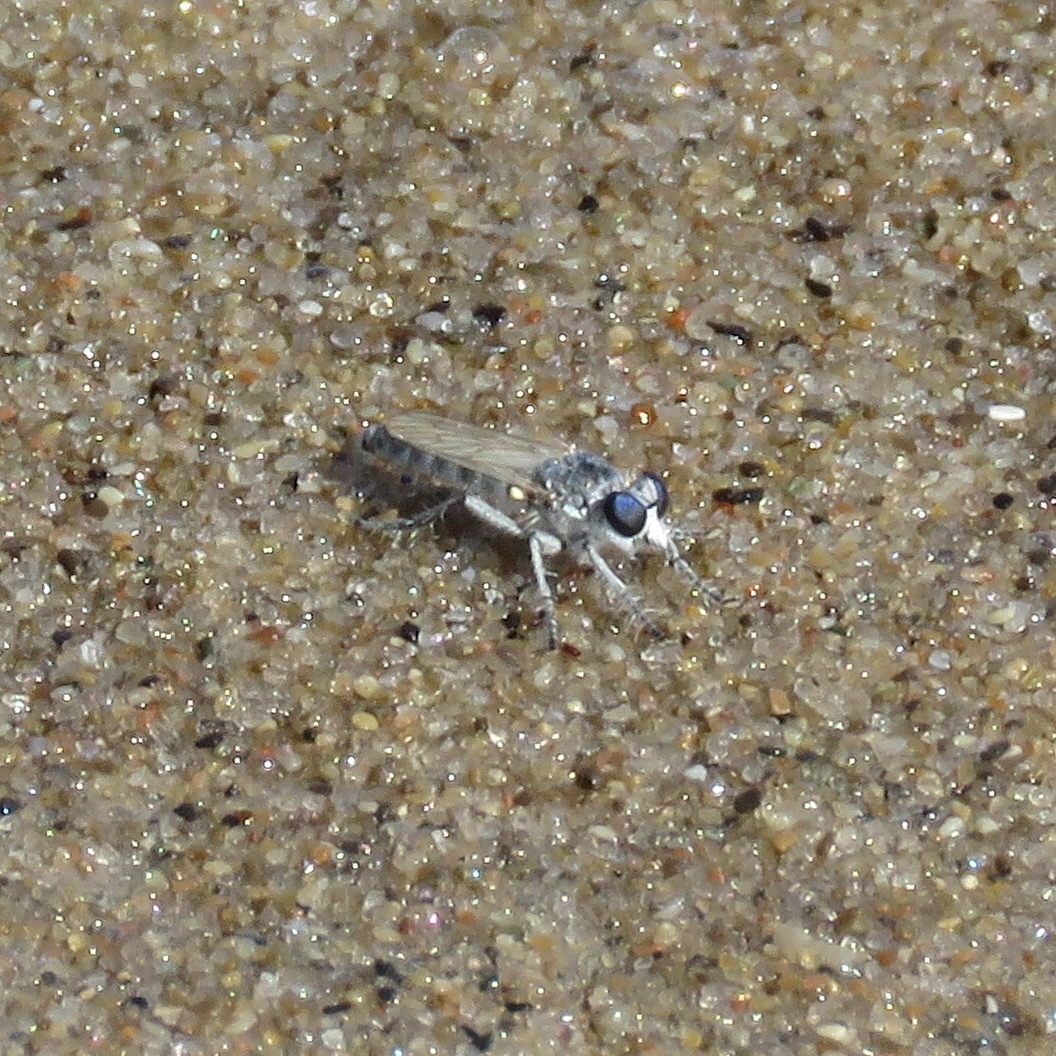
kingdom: Animalia
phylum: Arthropoda
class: Insecta
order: Diptera
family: Asilidae
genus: Stichopogon
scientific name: Stichopogon argenteus
